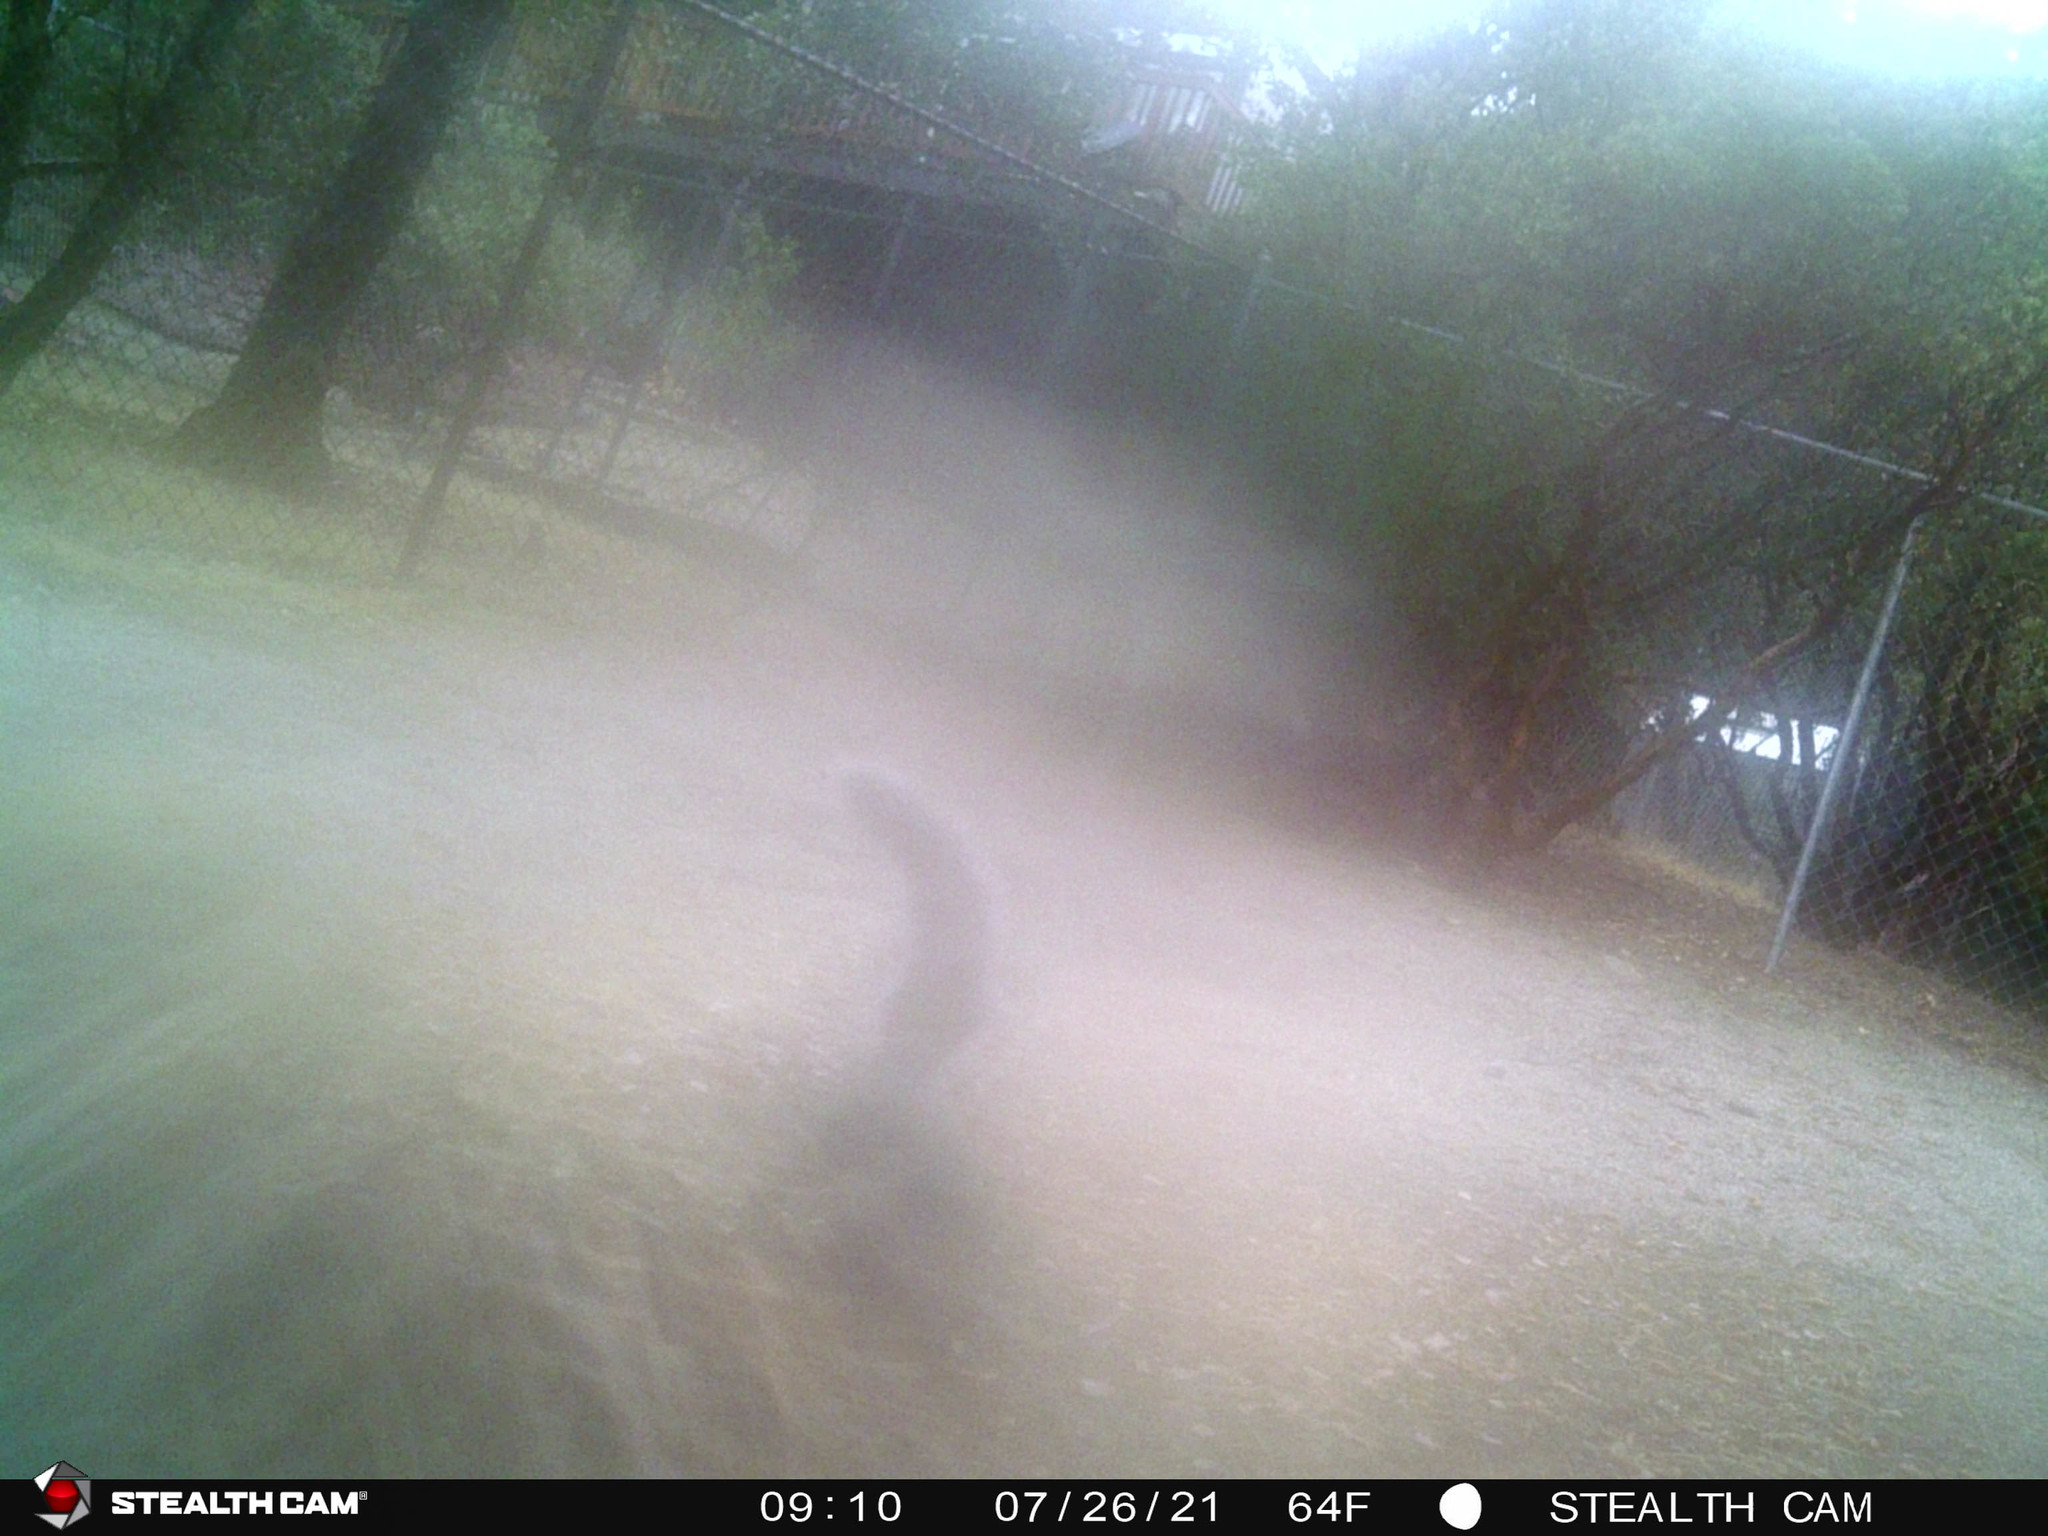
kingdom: Animalia
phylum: Chordata
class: Mammalia
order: Rodentia
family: Sciuridae
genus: Sciurus
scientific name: Sciurus griseus
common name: Western gray squirrel
